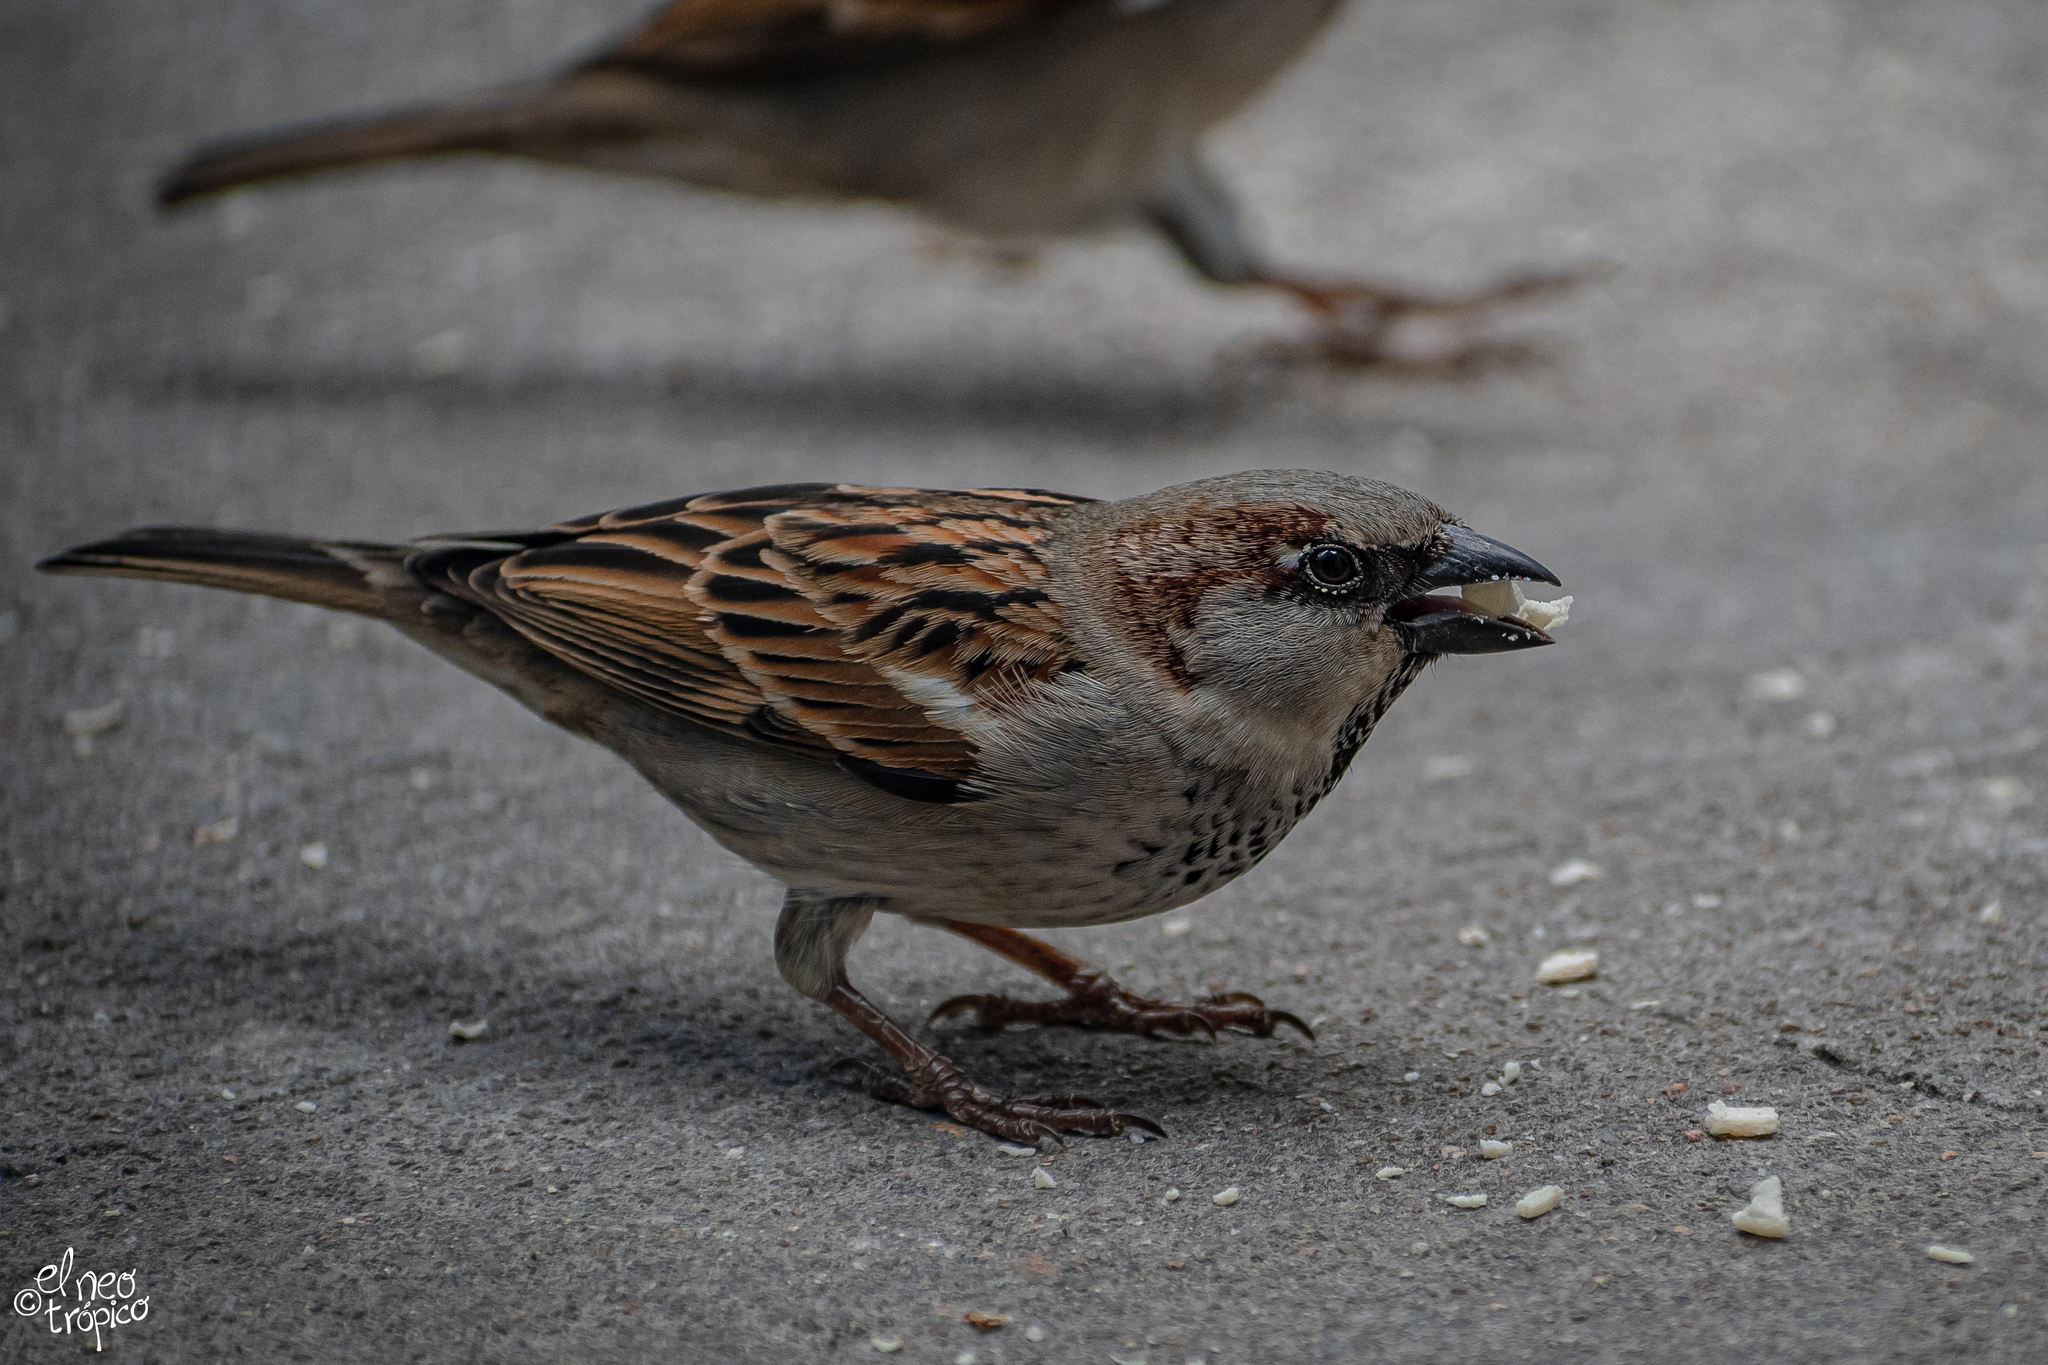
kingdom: Animalia
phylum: Chordata
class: Aves
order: Passeriformes
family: Passeridae
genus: Passer
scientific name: Passer domesticus
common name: House sparrow
